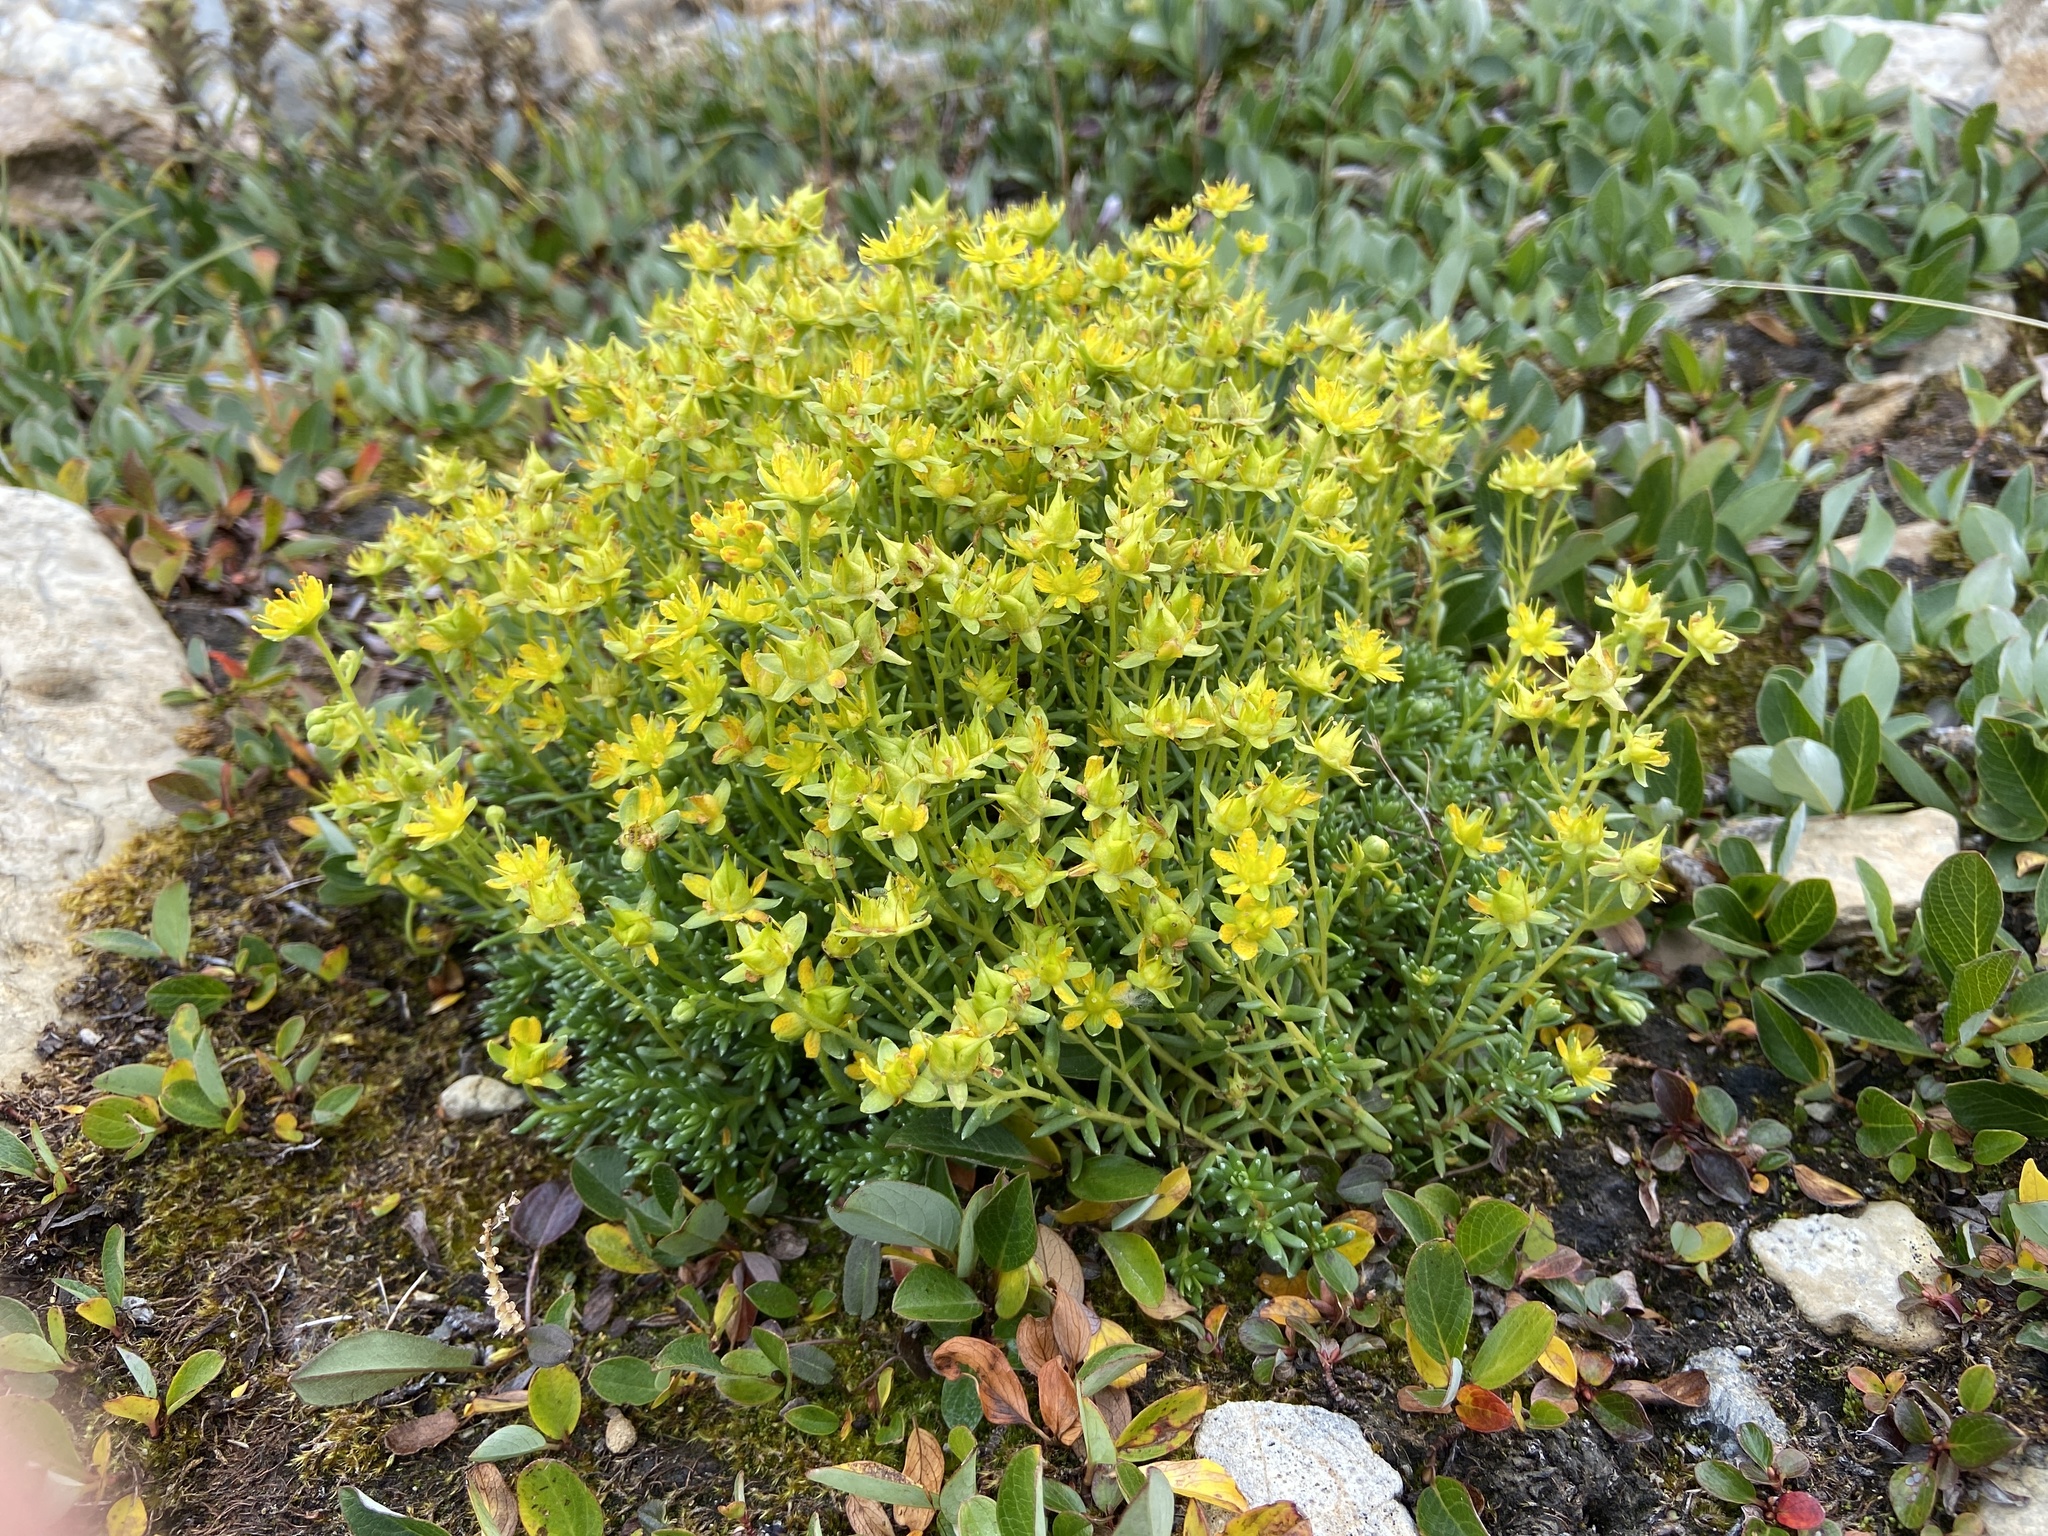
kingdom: Plantae
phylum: Tracheophyta
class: Magnoliopsida
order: Saxifragales
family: Saxifragaceae
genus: Saxifraga
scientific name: Saxifraga aizoides
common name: Yellow mountain saxifrage
